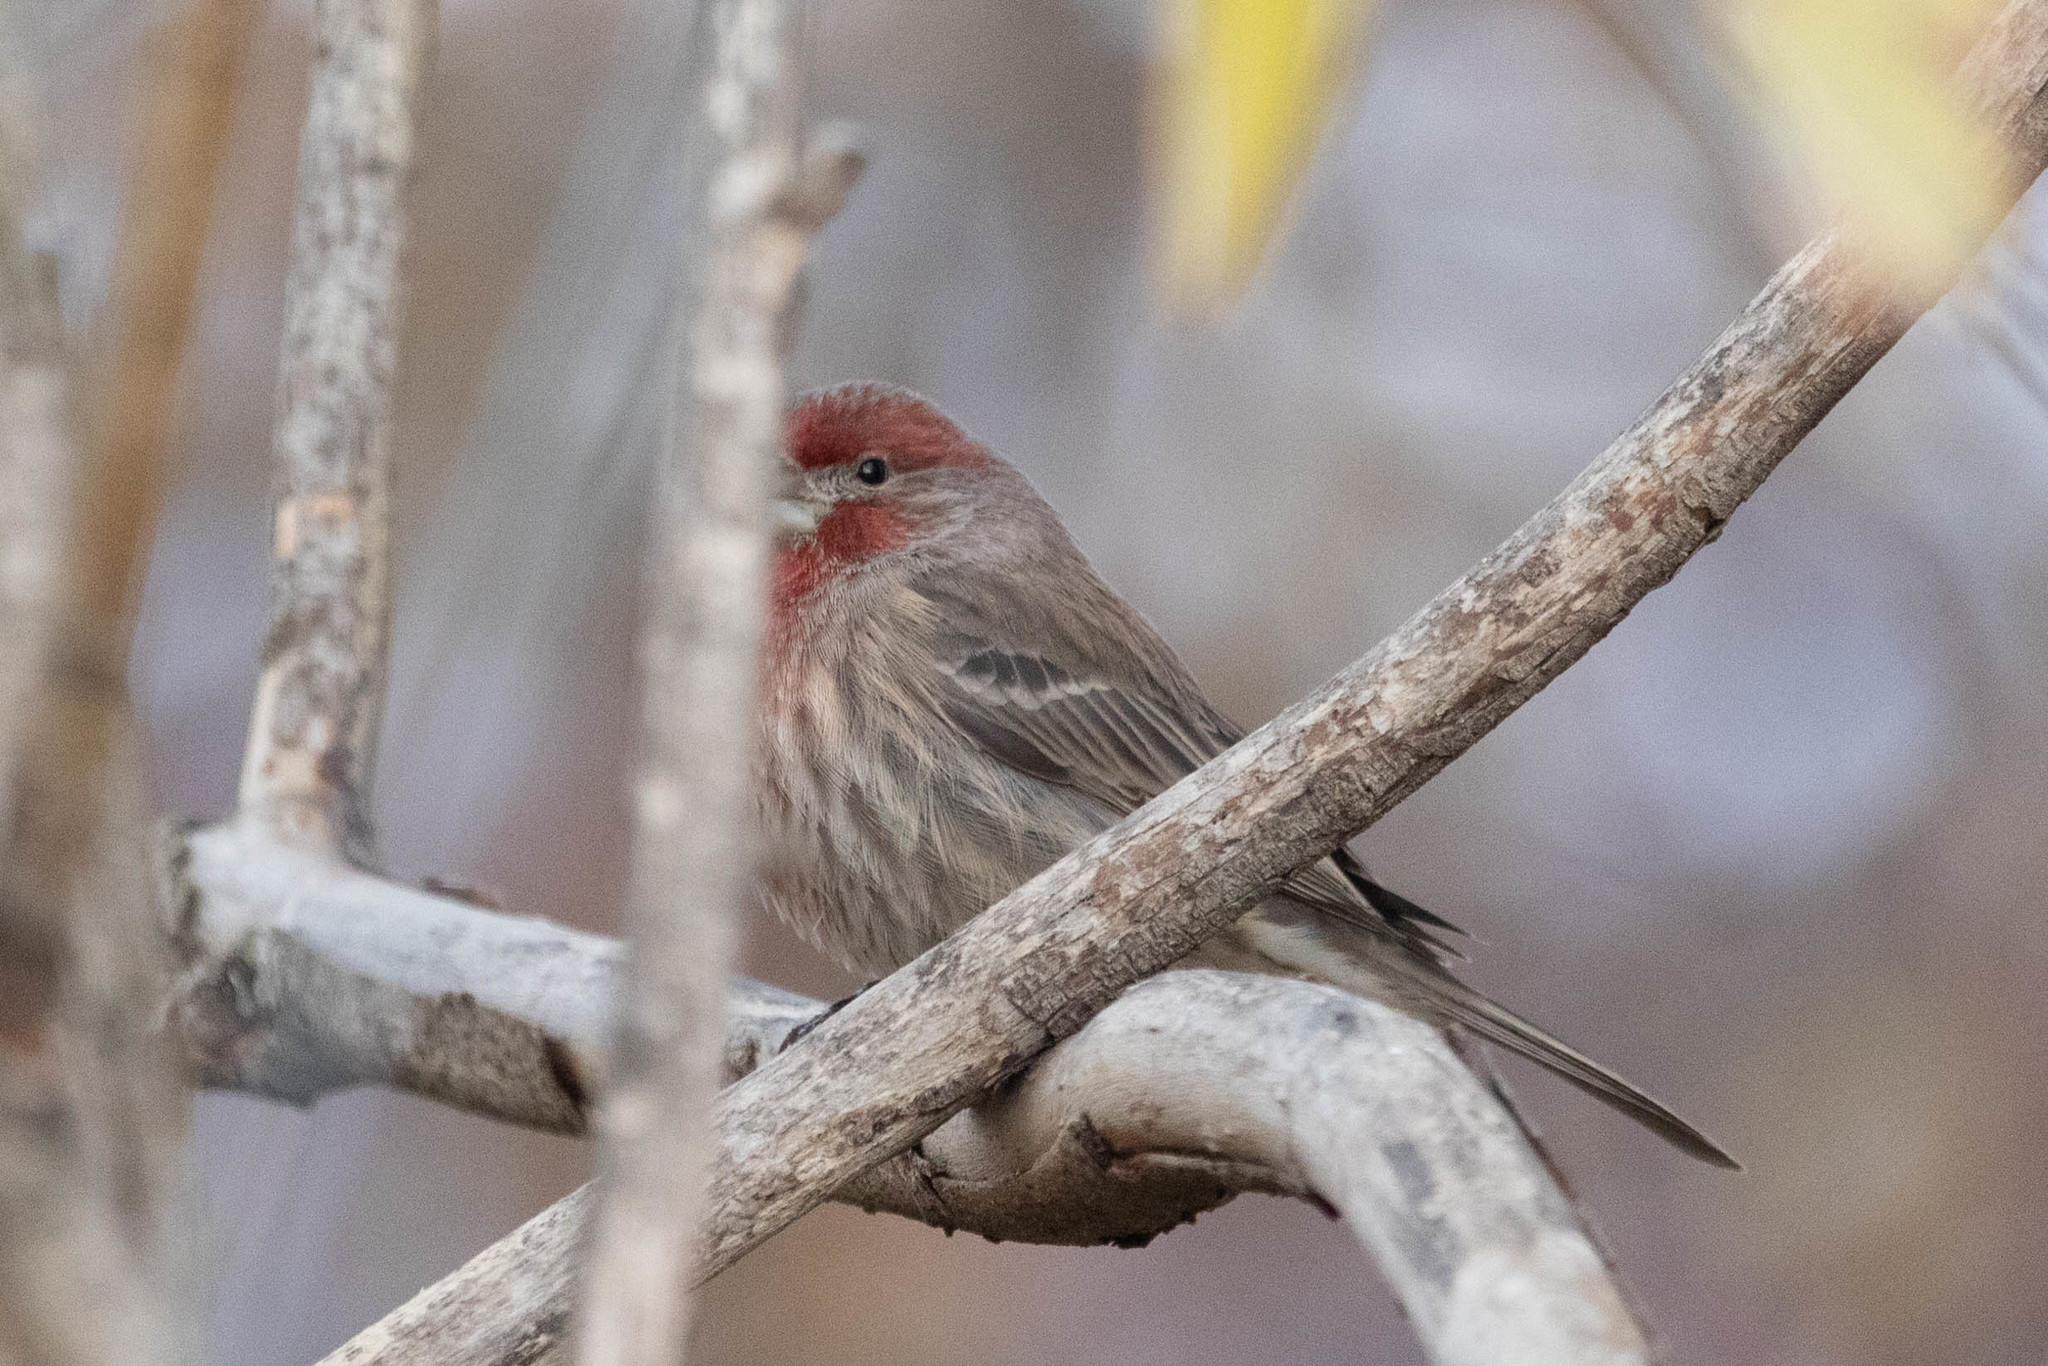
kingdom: Animalia
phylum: Chordata
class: Aves
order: Passeriformes
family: Fringillidae
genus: Haemorhous
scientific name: Haemorhous mexicanus
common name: House finch
